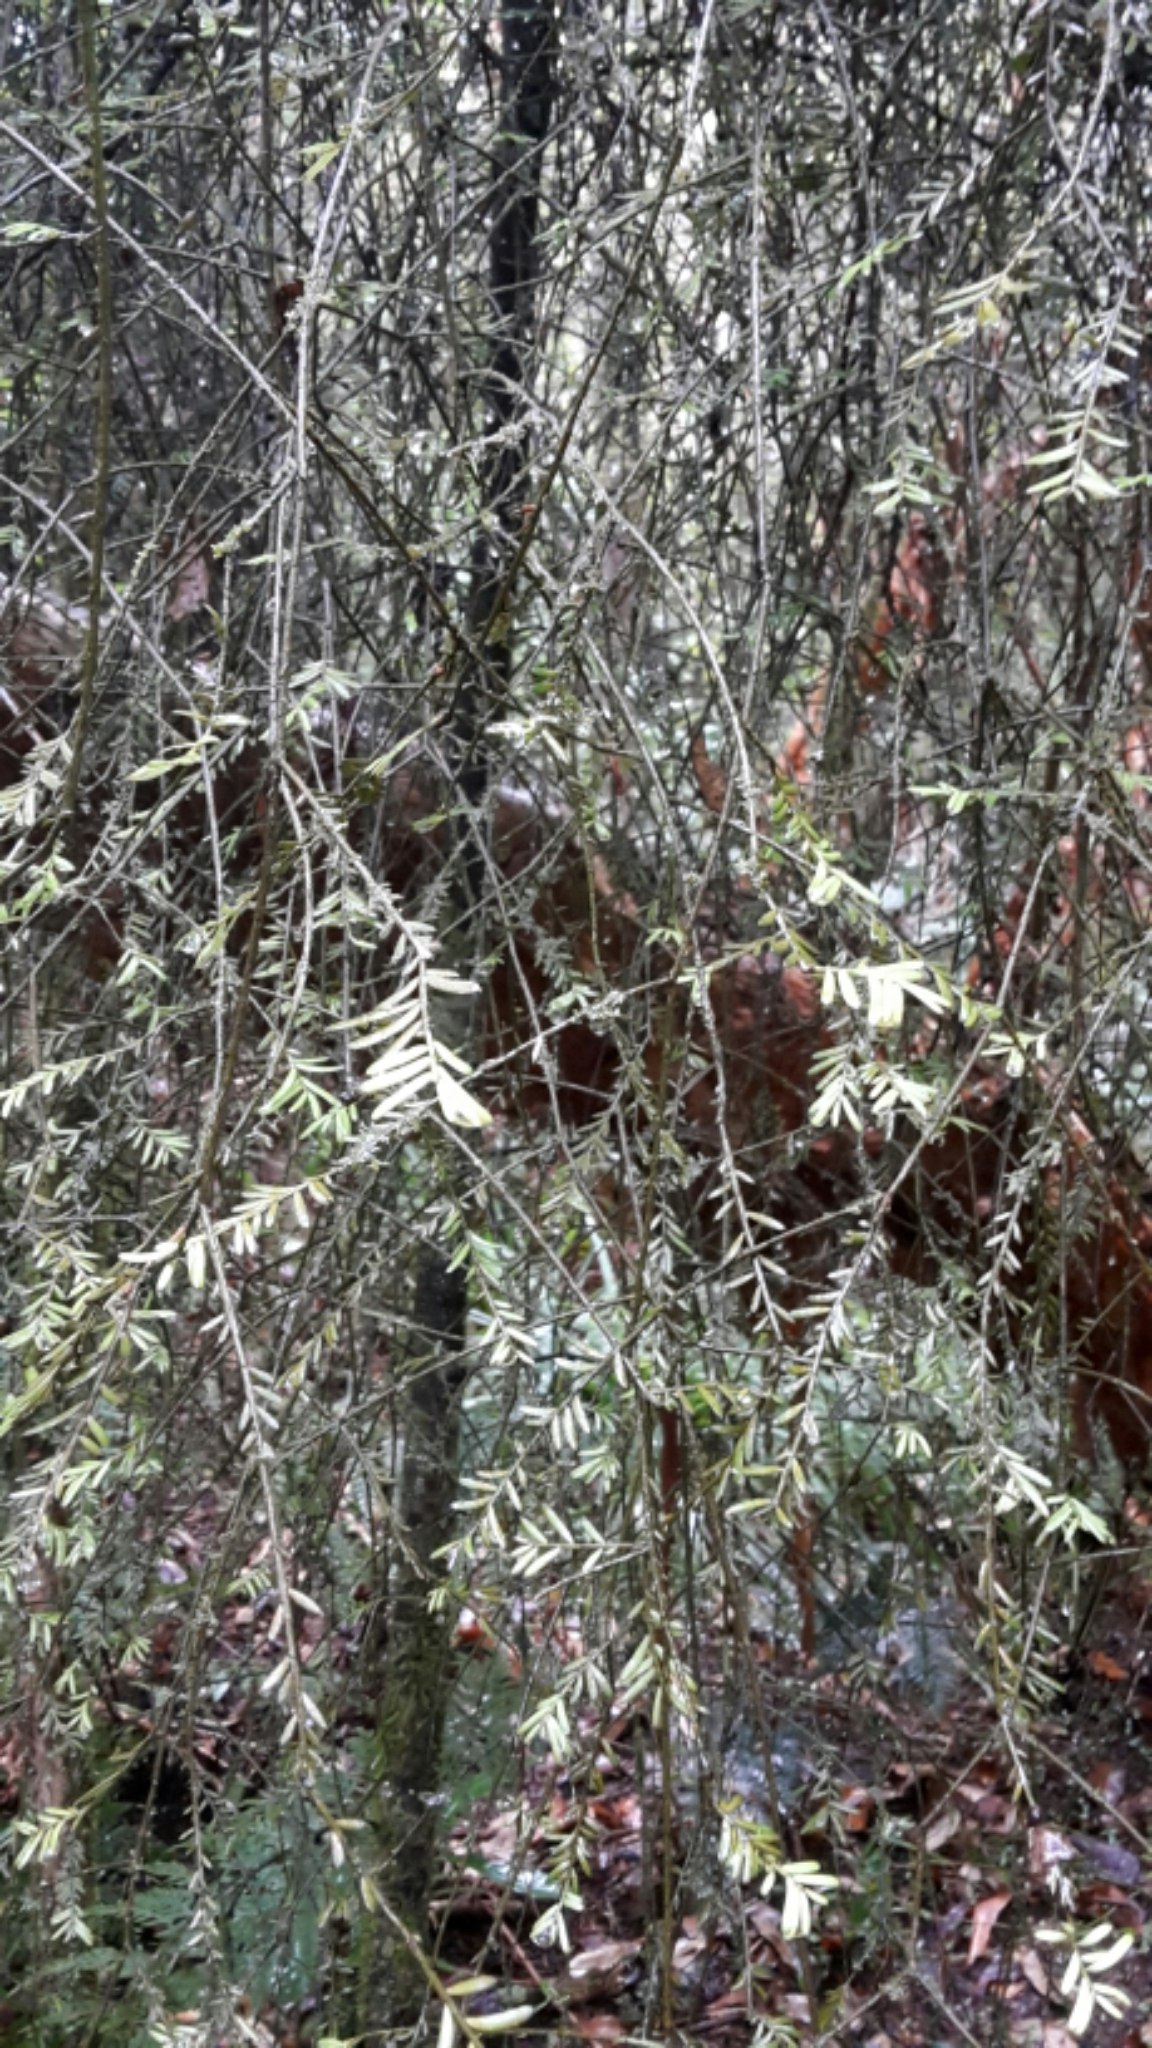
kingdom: Plantae
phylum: Tracheophyta
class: Pinopsida
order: Pinales
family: Podocarpaceae
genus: Prumnopitys
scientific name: Prumnopitys taxifolia
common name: Matai
